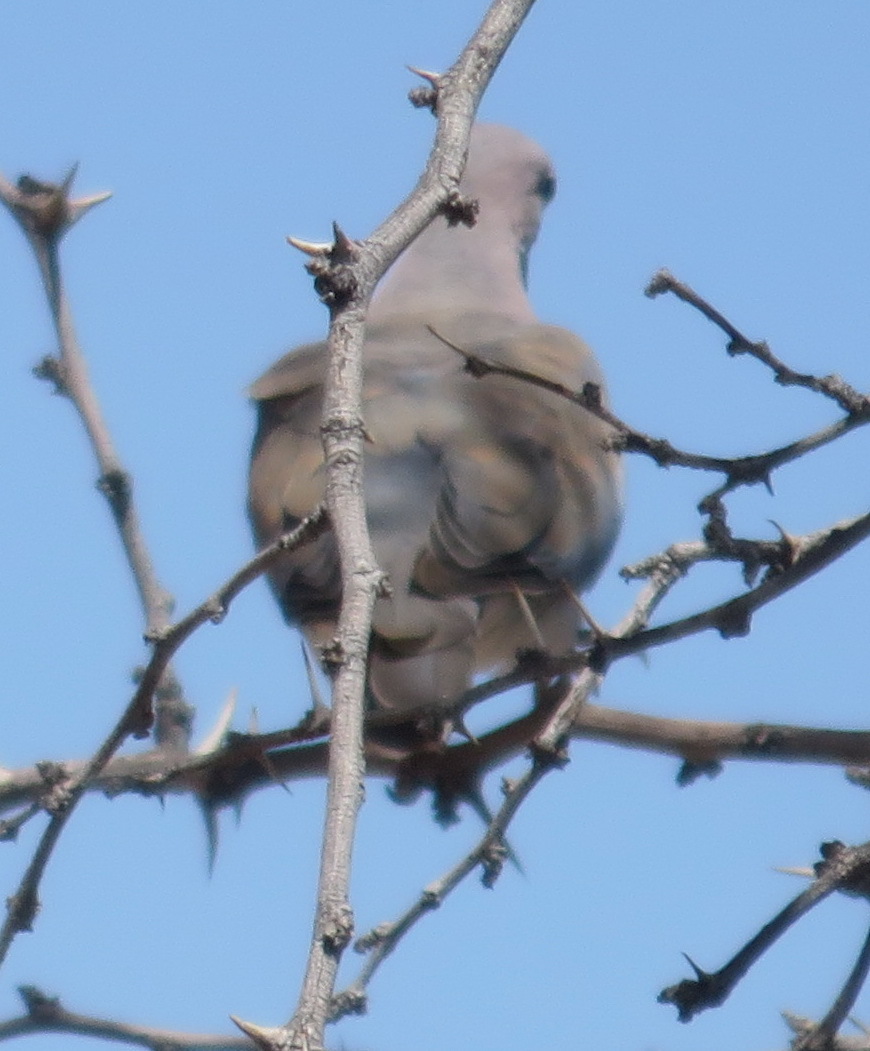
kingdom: Animalia
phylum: Chordata
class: Aves
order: Columbiformes
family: Columbidae
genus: Spilopelia
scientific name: Spilopelia senegalensis
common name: Laughing dove
